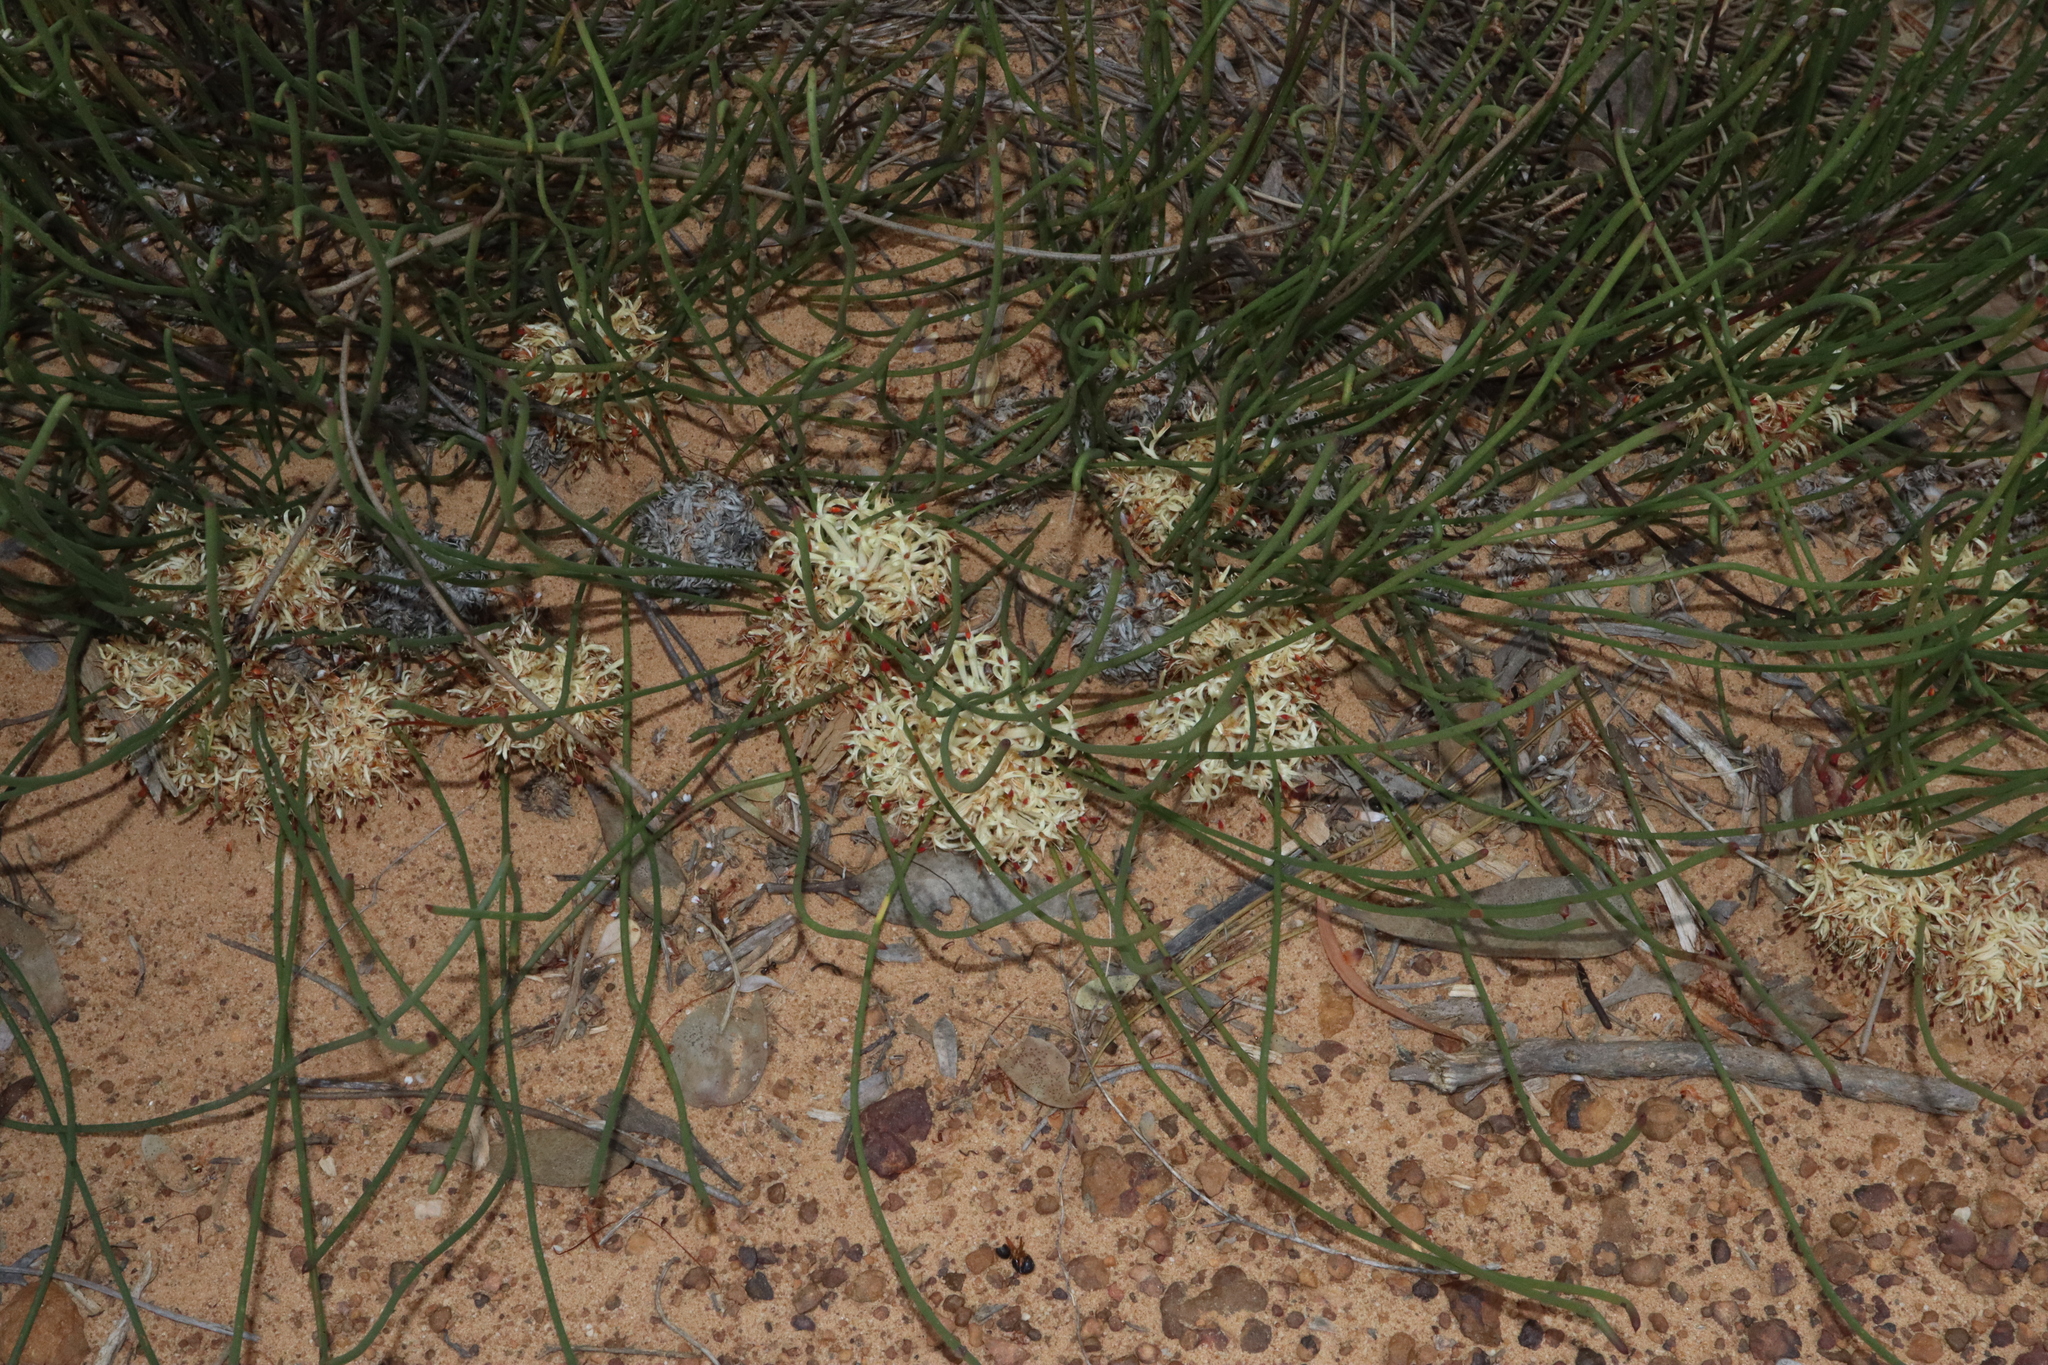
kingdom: Plantae
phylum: Tracheophyta
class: Magnoliopsida
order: Proteales
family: Proteaceae
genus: Petrophile
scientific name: Petrophile prostrata
